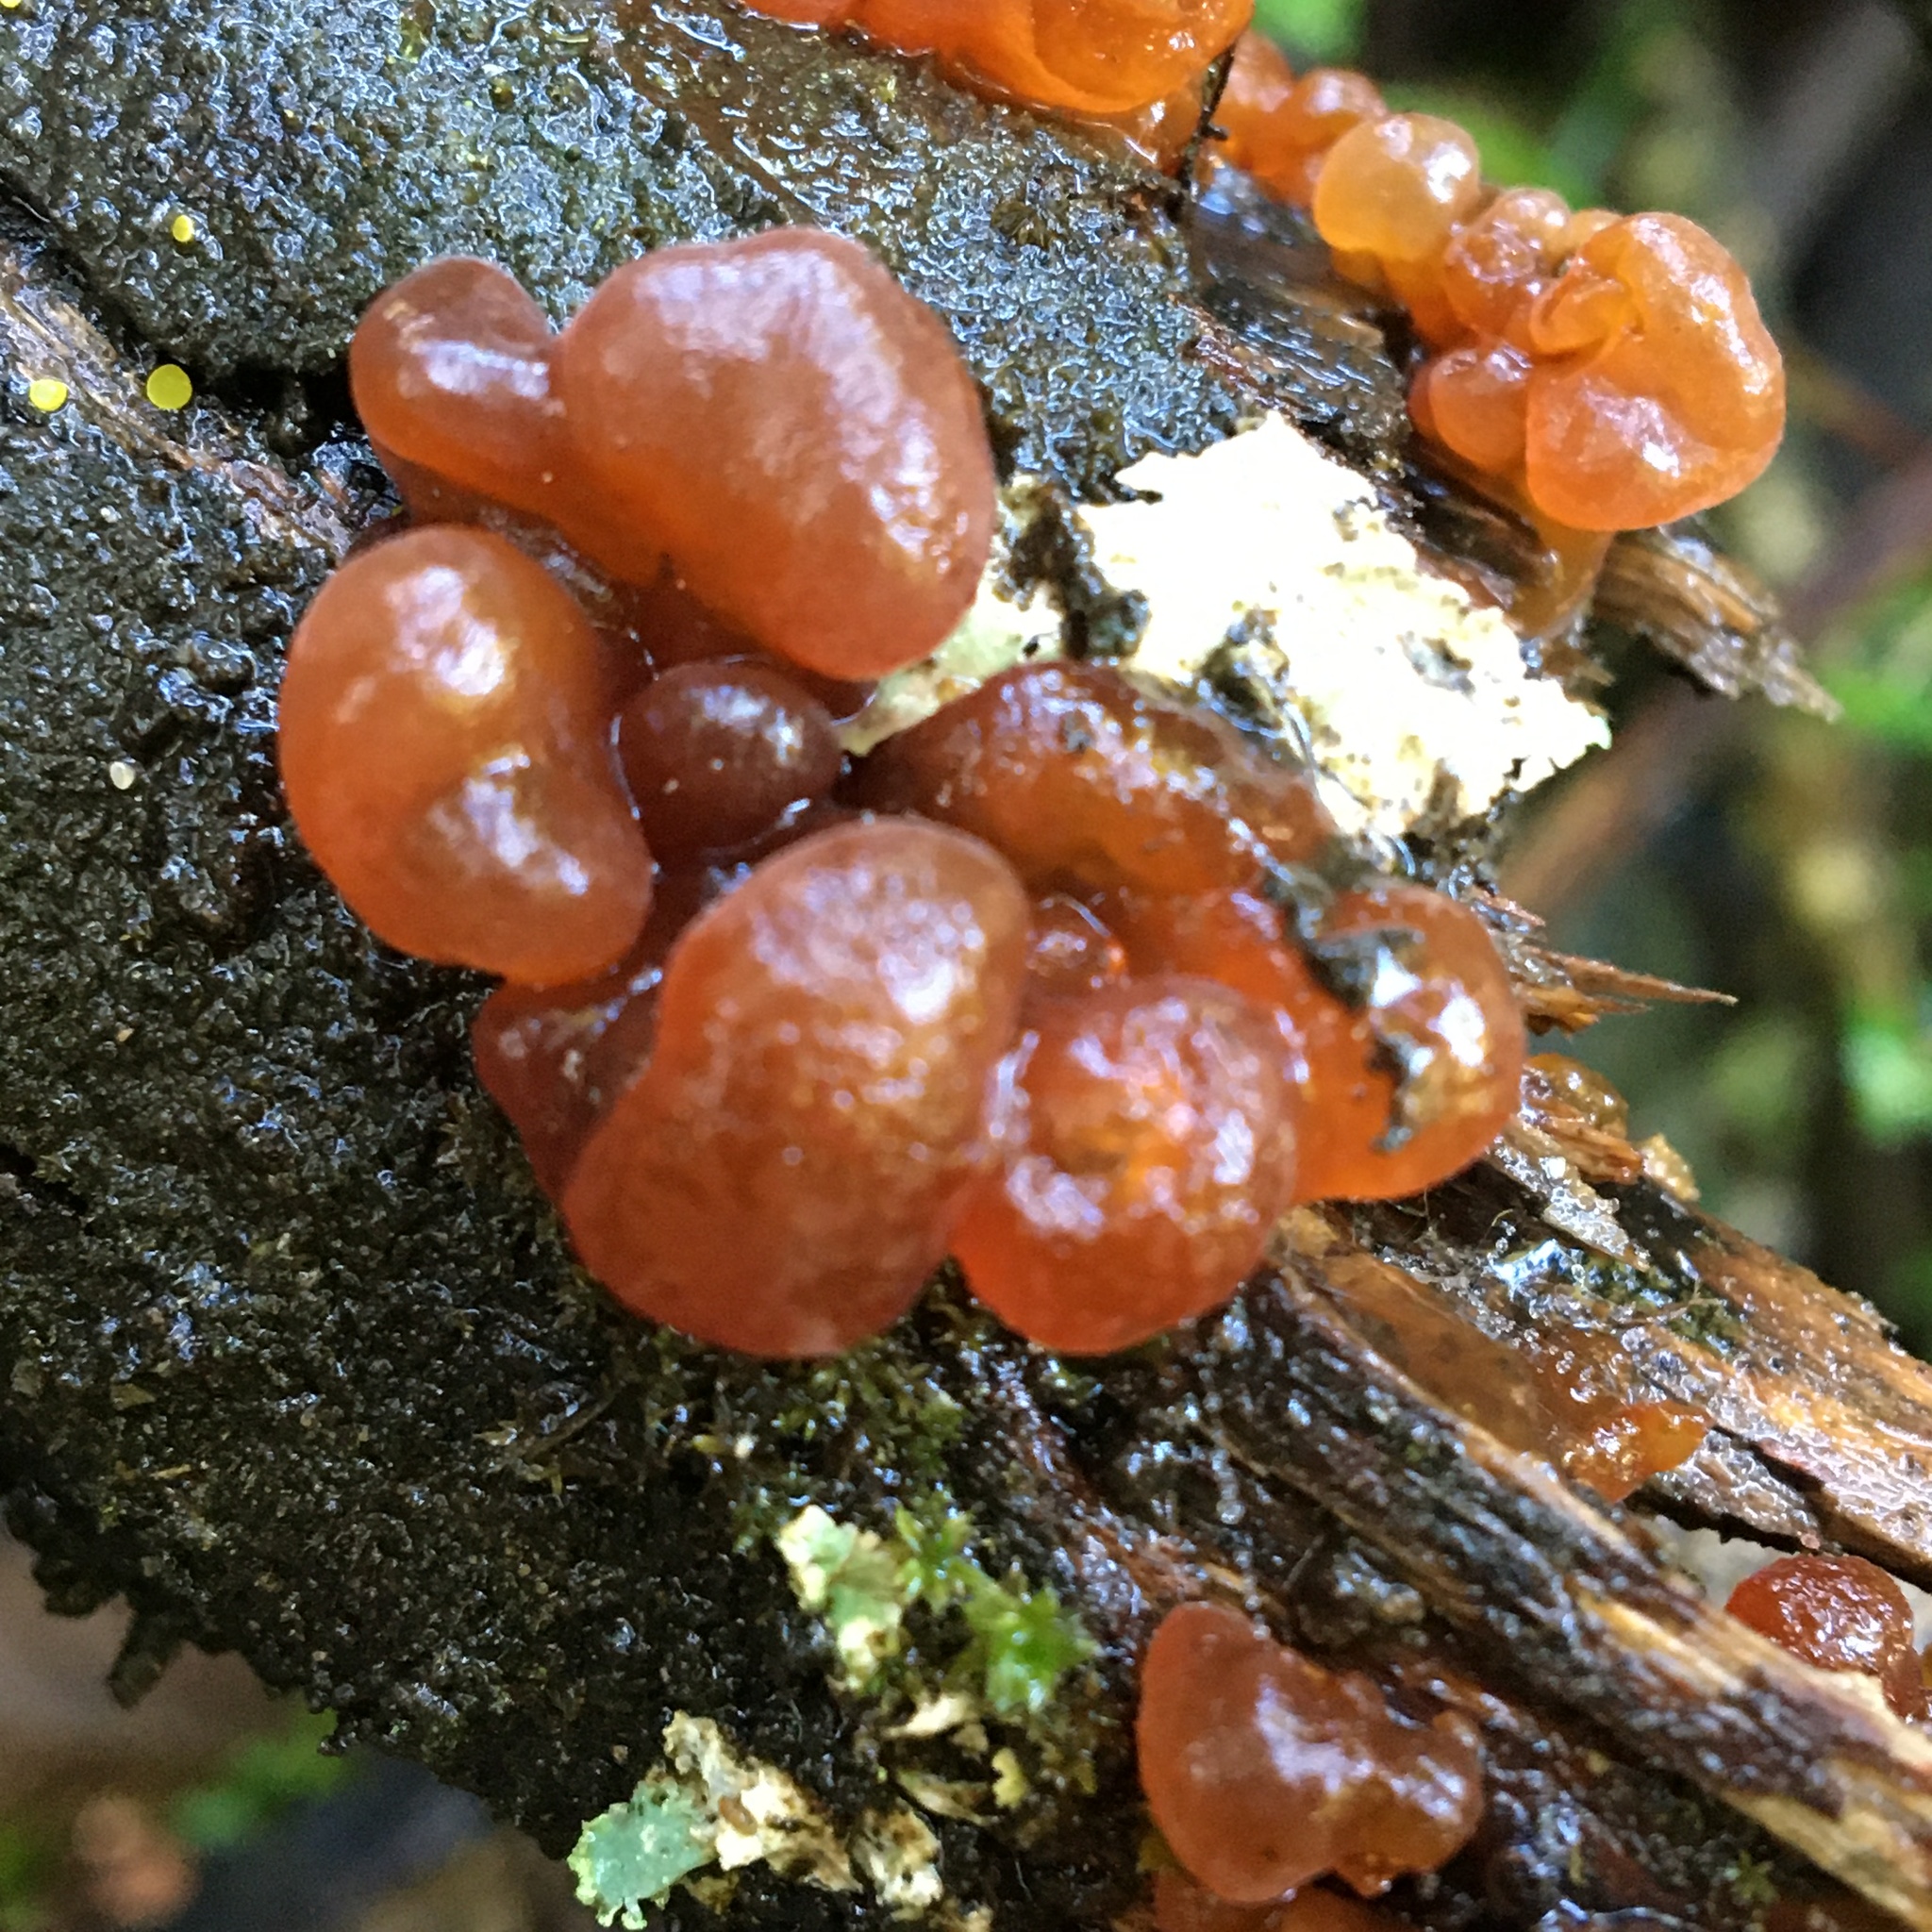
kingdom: Fungi
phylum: Basidiomycota
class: Tremellomycetes
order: Tremellales
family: Tremellaceae
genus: Phaeotremella
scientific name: Phaeotremella fimbriata
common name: Brown witch's butter
